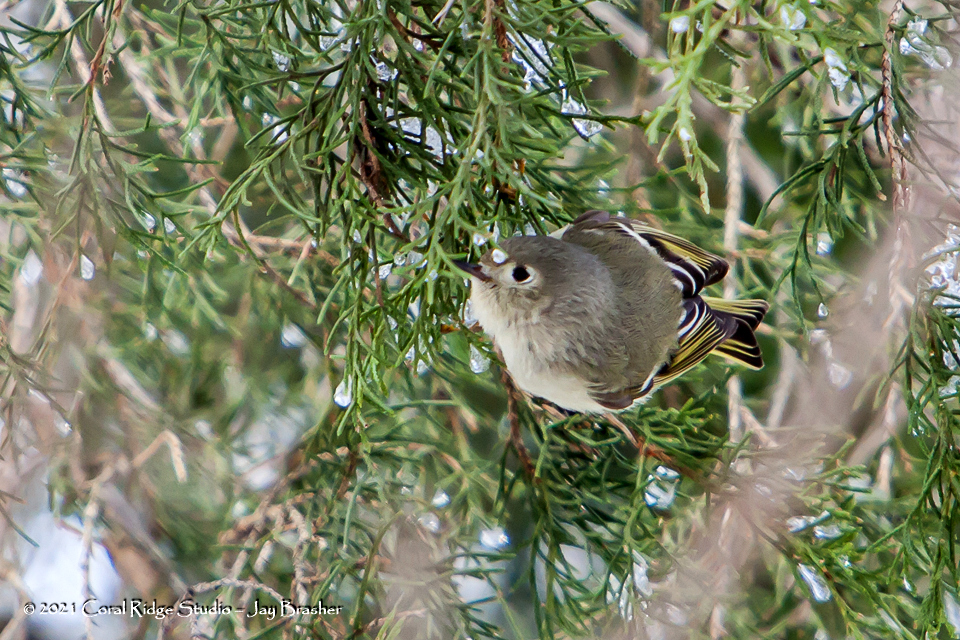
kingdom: Animalia
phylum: Chordata
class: Aves
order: Passeriformes
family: Regulidae
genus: Regulus
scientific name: Regulus calendula
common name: Ruby-crowned kinglet
